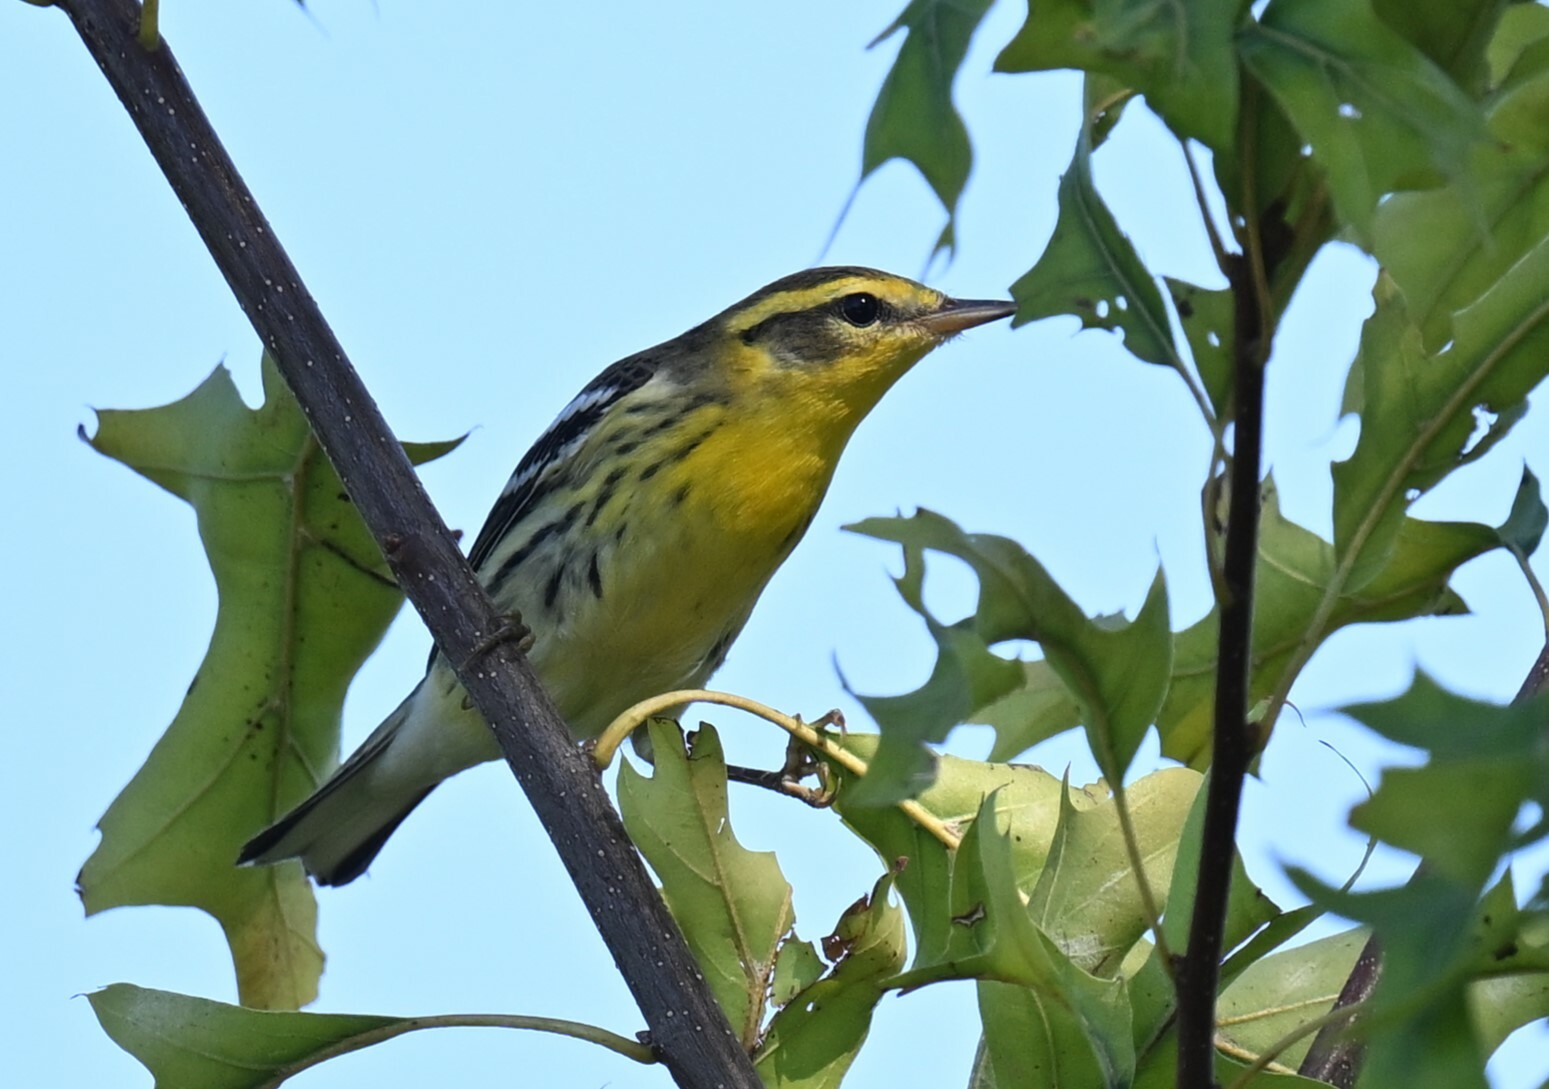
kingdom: Animalia
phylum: Chordata
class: Aves
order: Passeriformes
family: Parulidae
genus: Setophaga
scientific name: Setophaga fusca
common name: Blackburnian warbler
